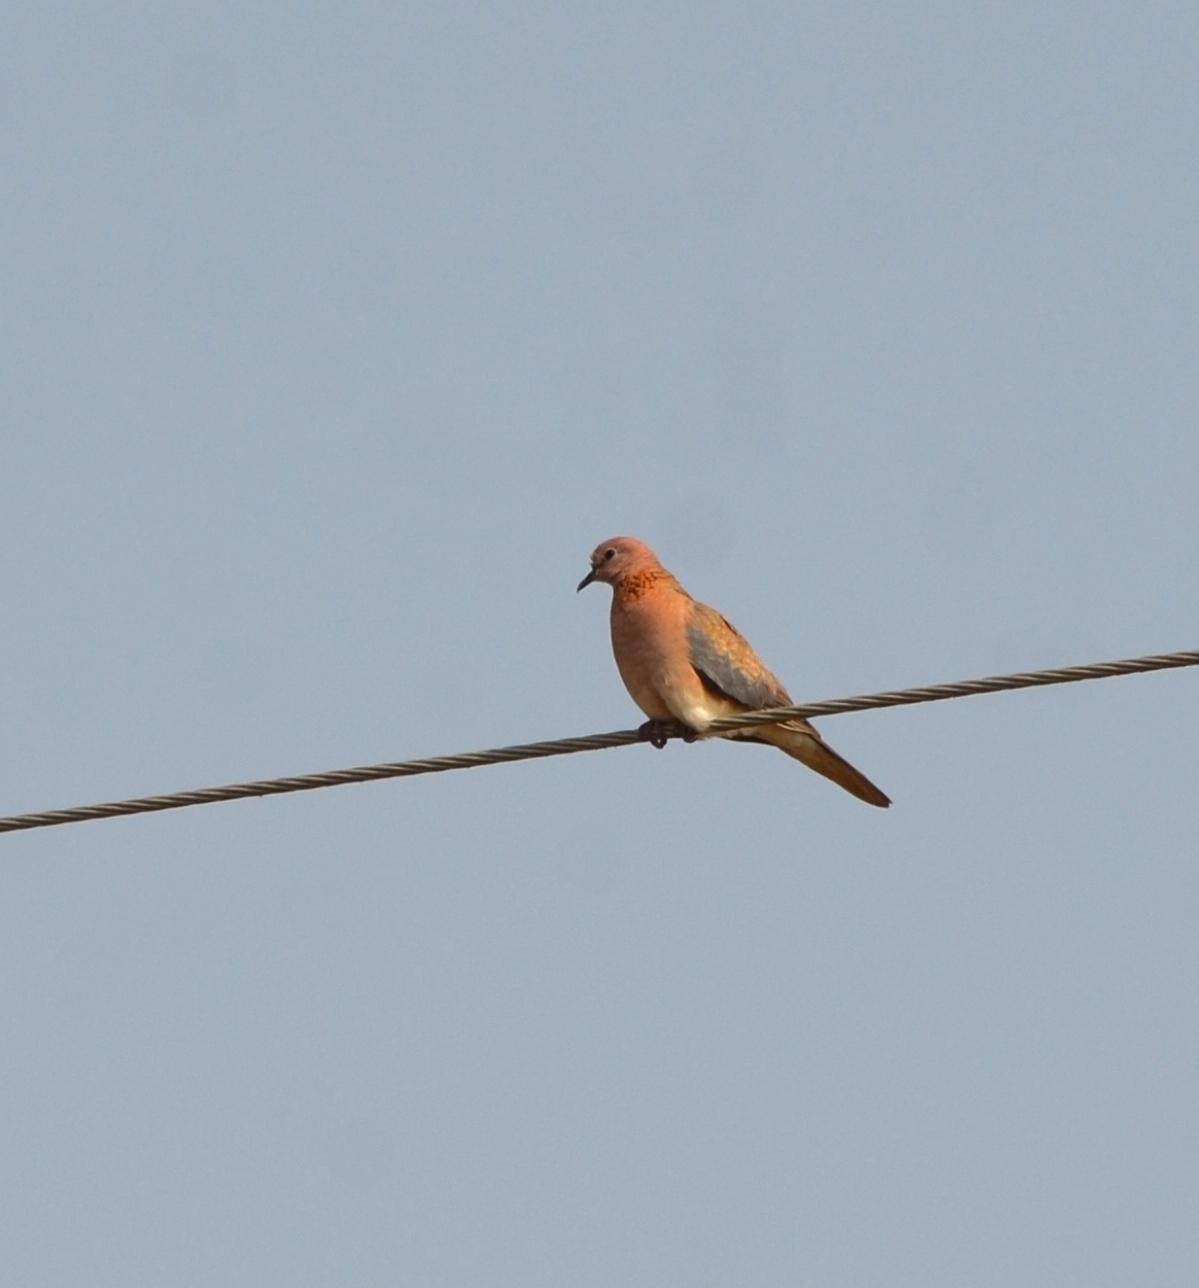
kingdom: Animalia
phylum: Chordata
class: Aves
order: Columbiformes
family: Columbidae
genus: Spilopelia
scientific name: Spilopelia senegalensis
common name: Laughing dove
